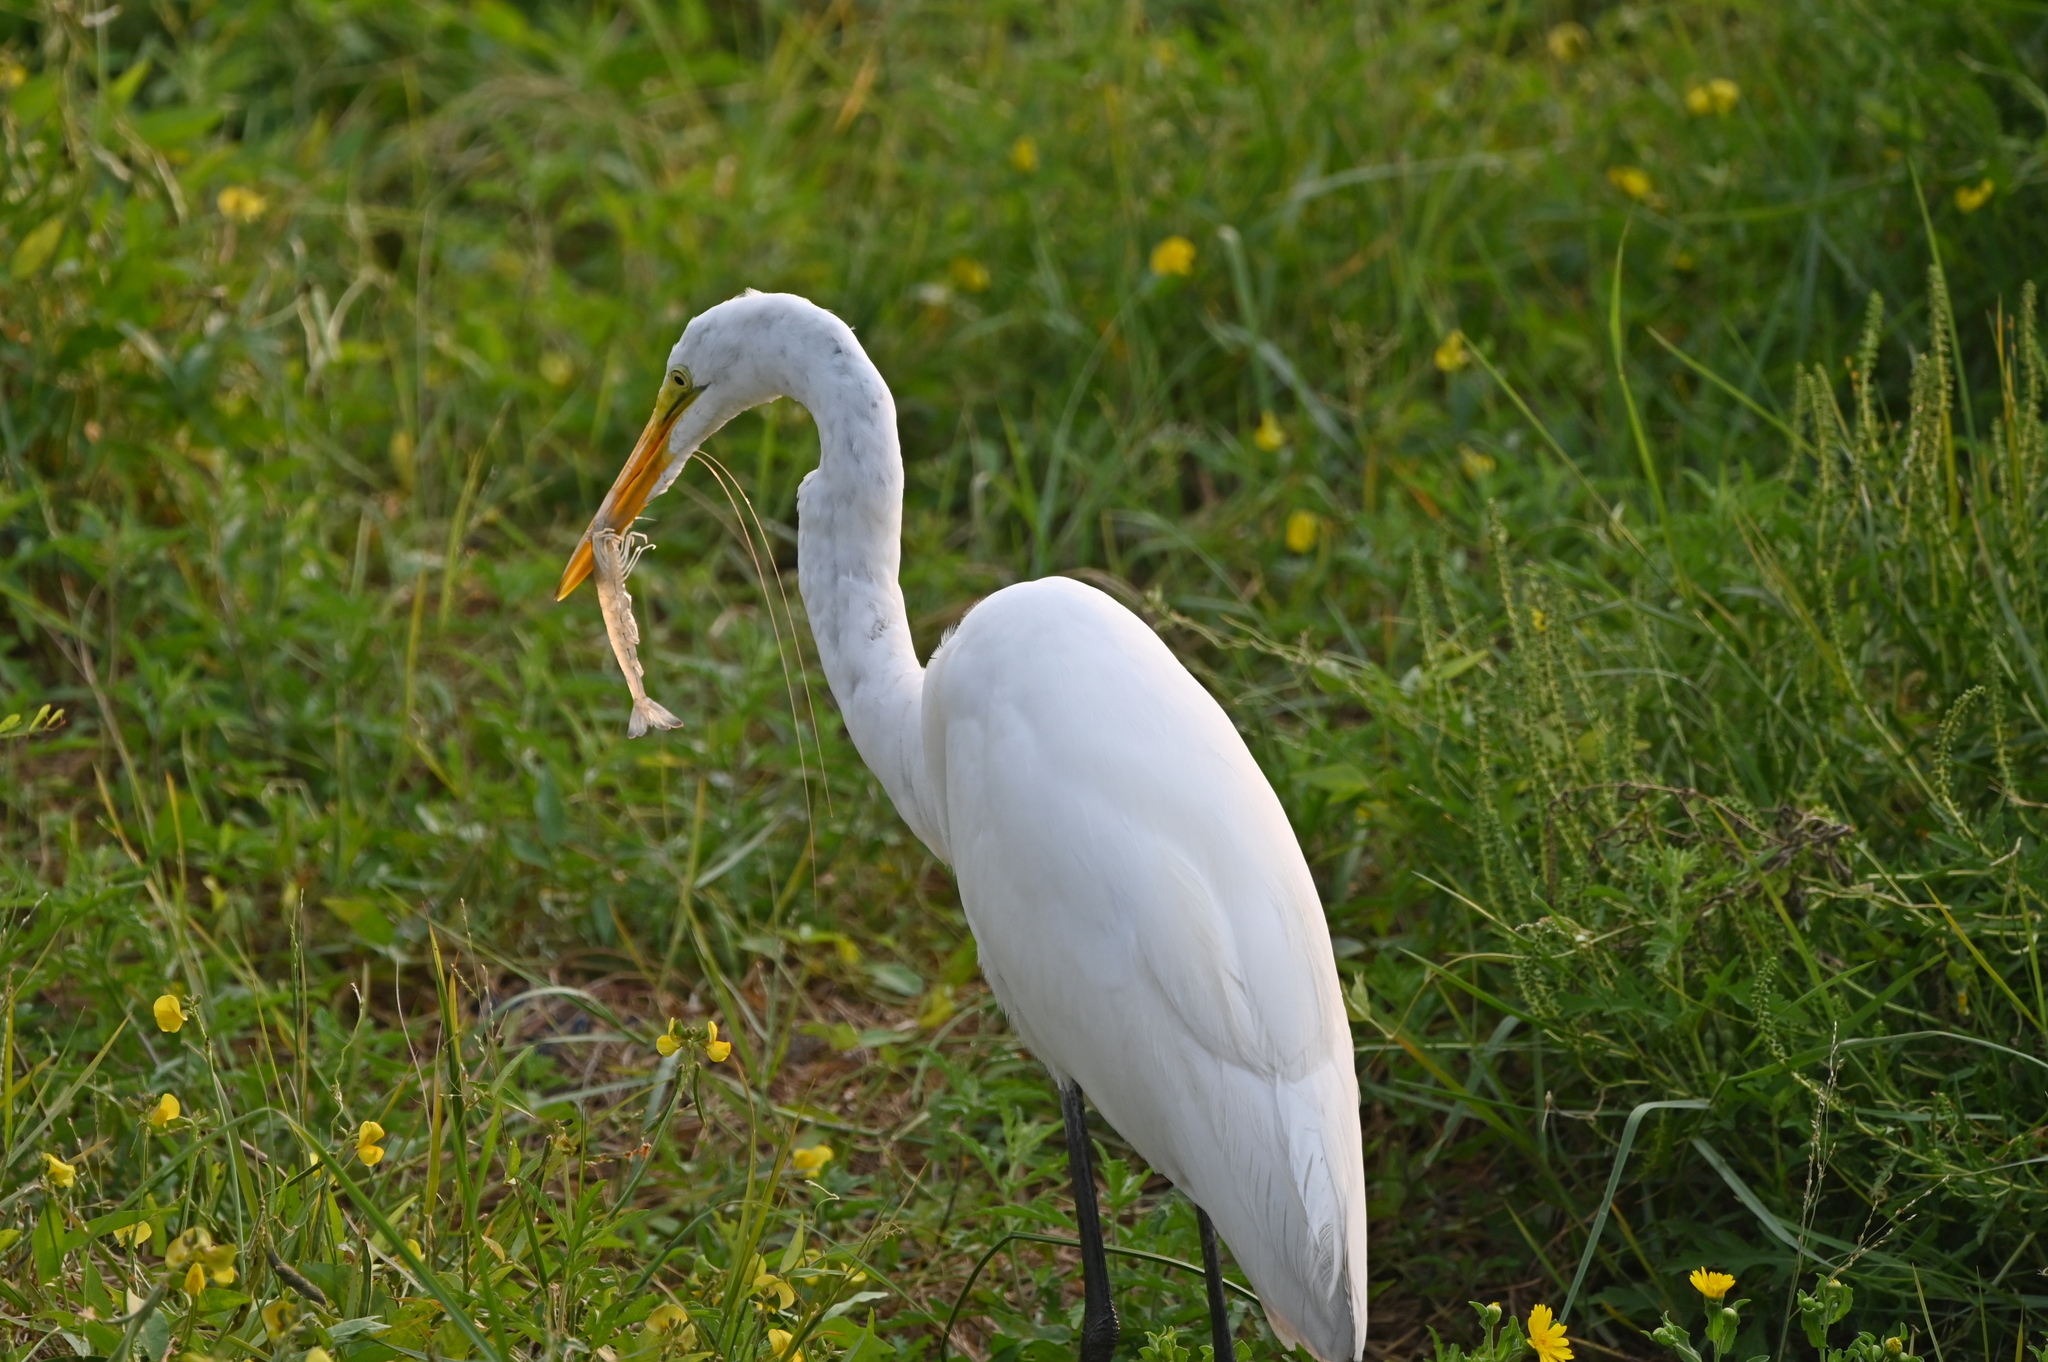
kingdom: Animalia
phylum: Chordata
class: Aves
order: Pelecaniformes
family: Ardeidae
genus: Ardea
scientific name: Ardea alba
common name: Great egret
